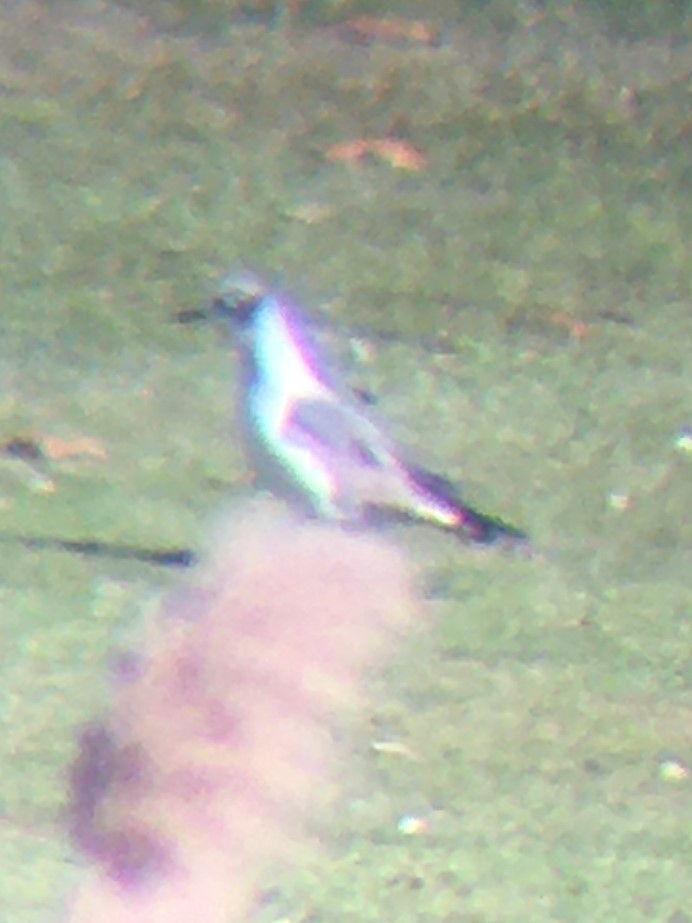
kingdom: Animalia
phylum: Chordata
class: Aves
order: Charadriiformes
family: Laridae
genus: Leucophaeus
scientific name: Leucophaeus pipixcan
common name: Franklin's gull
